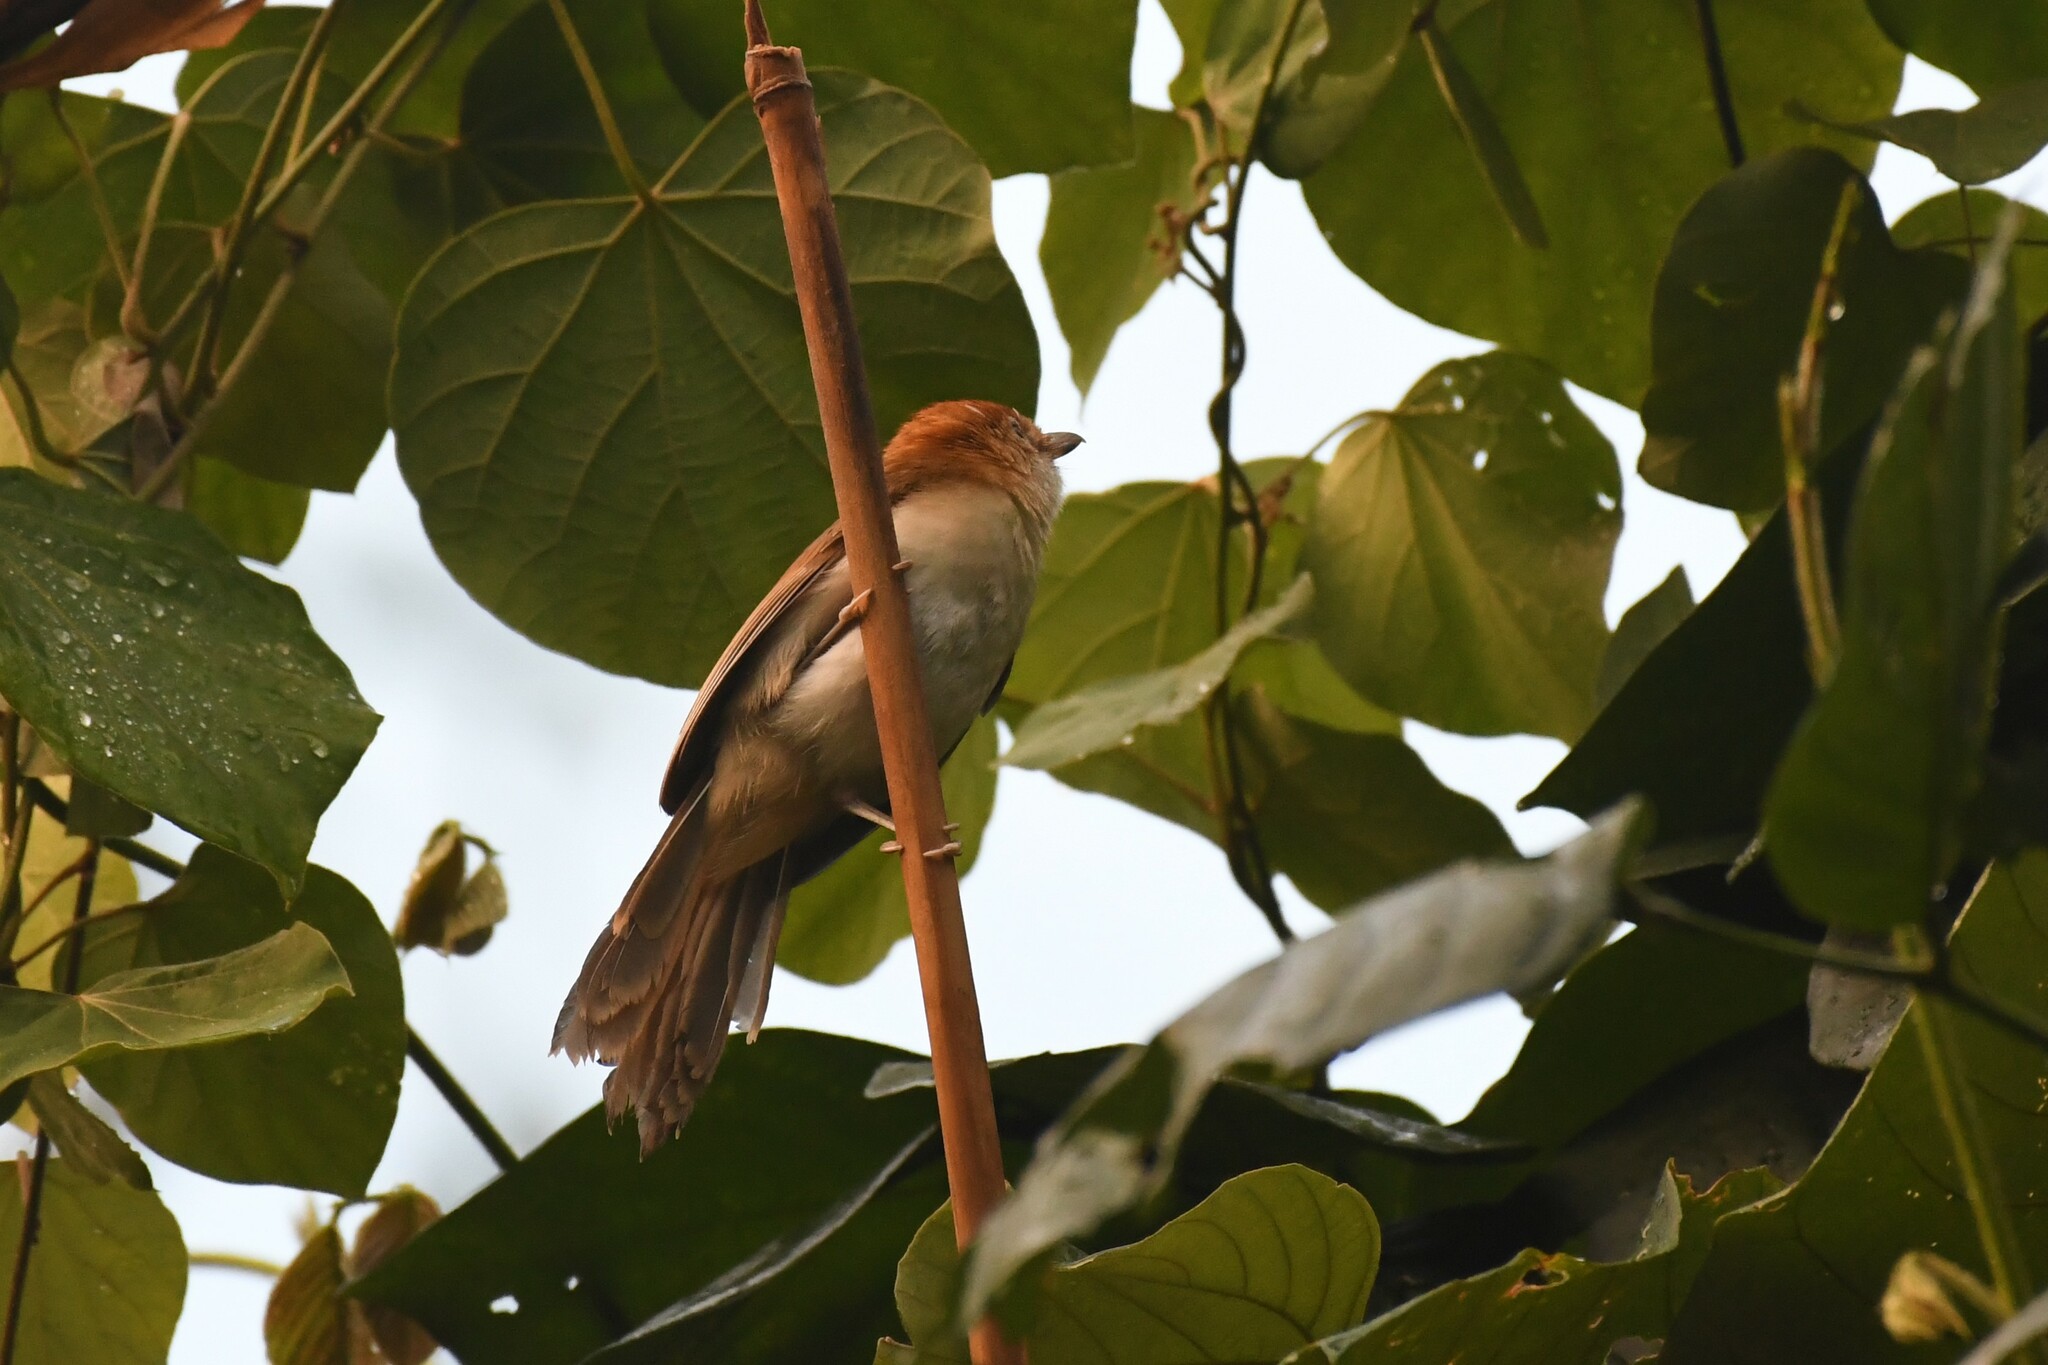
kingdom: Animalia
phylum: Chordata
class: Aves
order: Passeriformes
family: Pellorneidae
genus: Gampsorhynchus
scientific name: Gampsorhynchus rufulus
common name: White-hooded babbler
